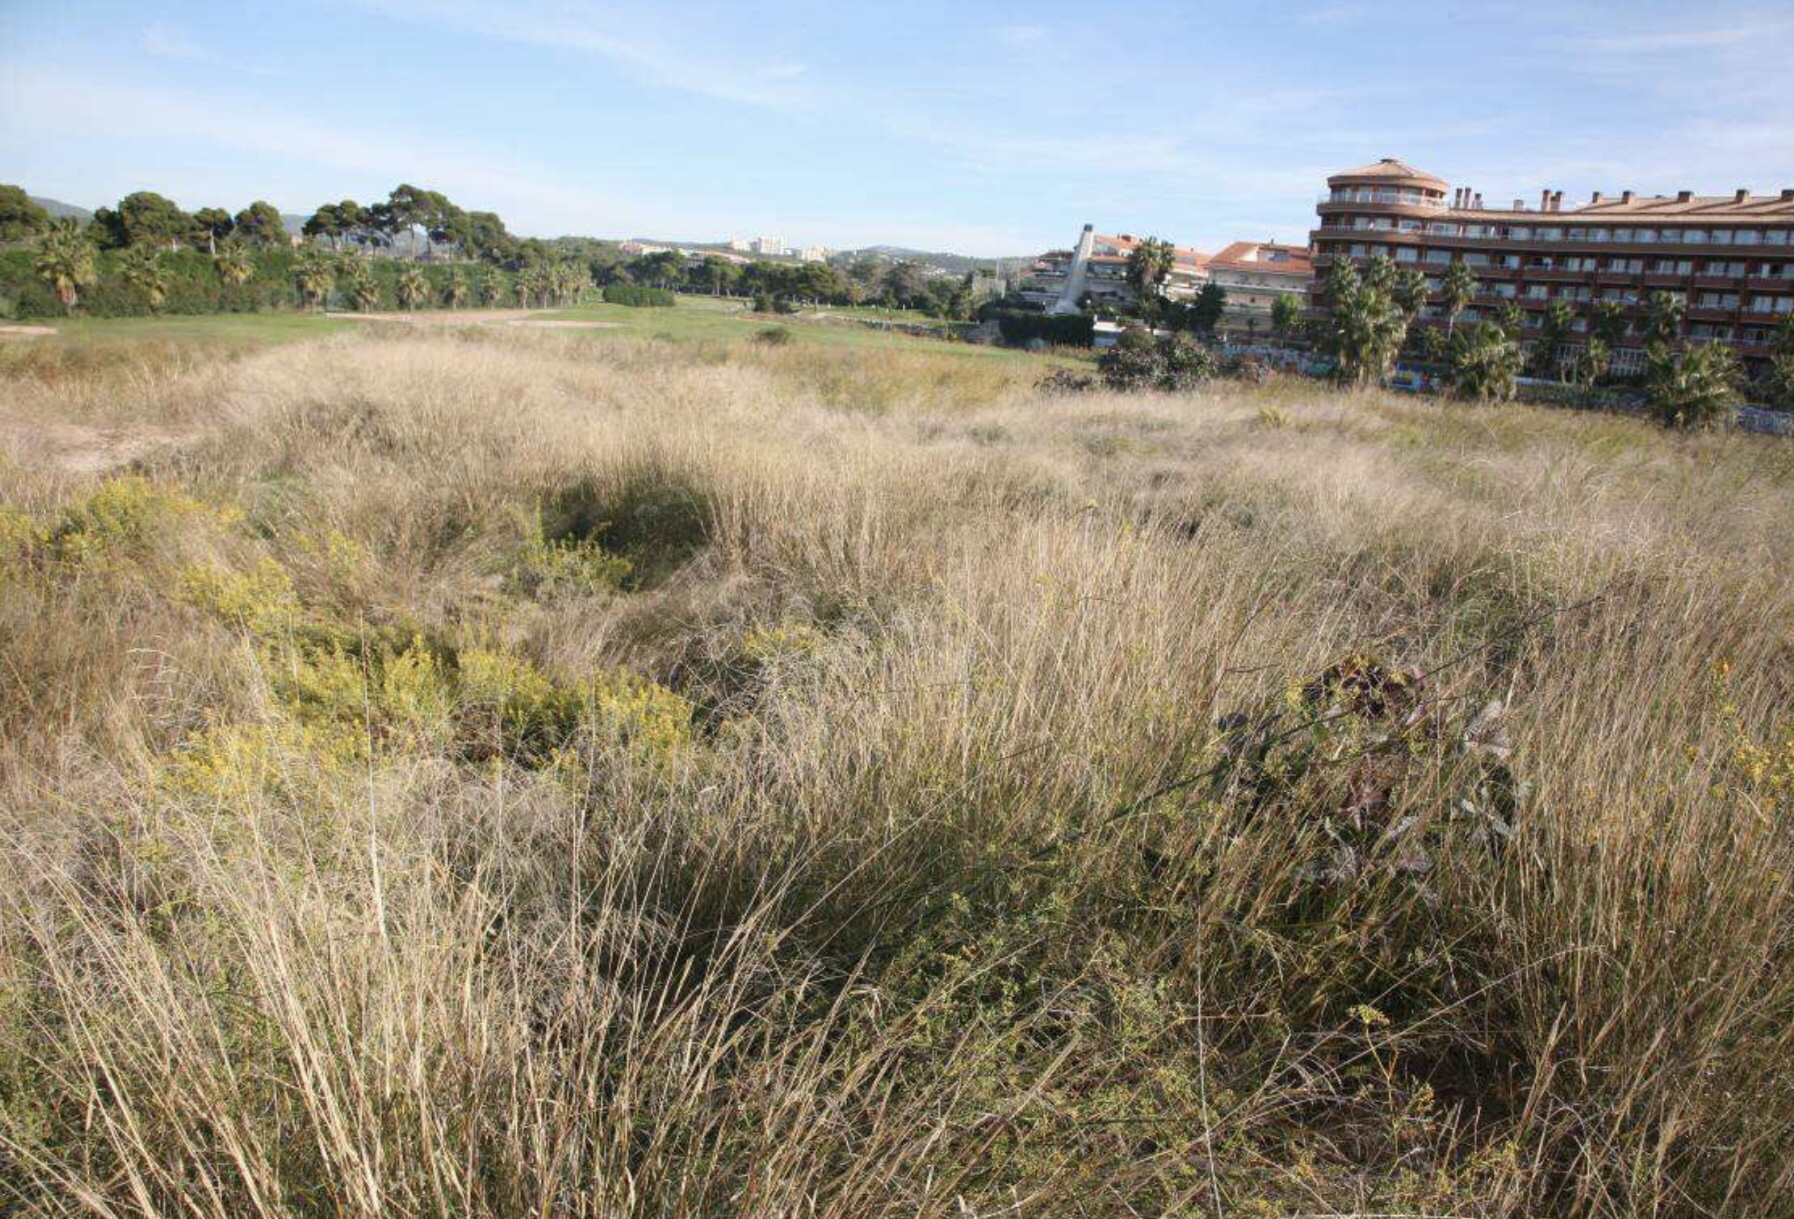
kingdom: Plantae
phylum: Tracheophyta
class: Liliopsida
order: Poales
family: Poaceae
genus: Oloptum
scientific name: Oloptum miliaceum
